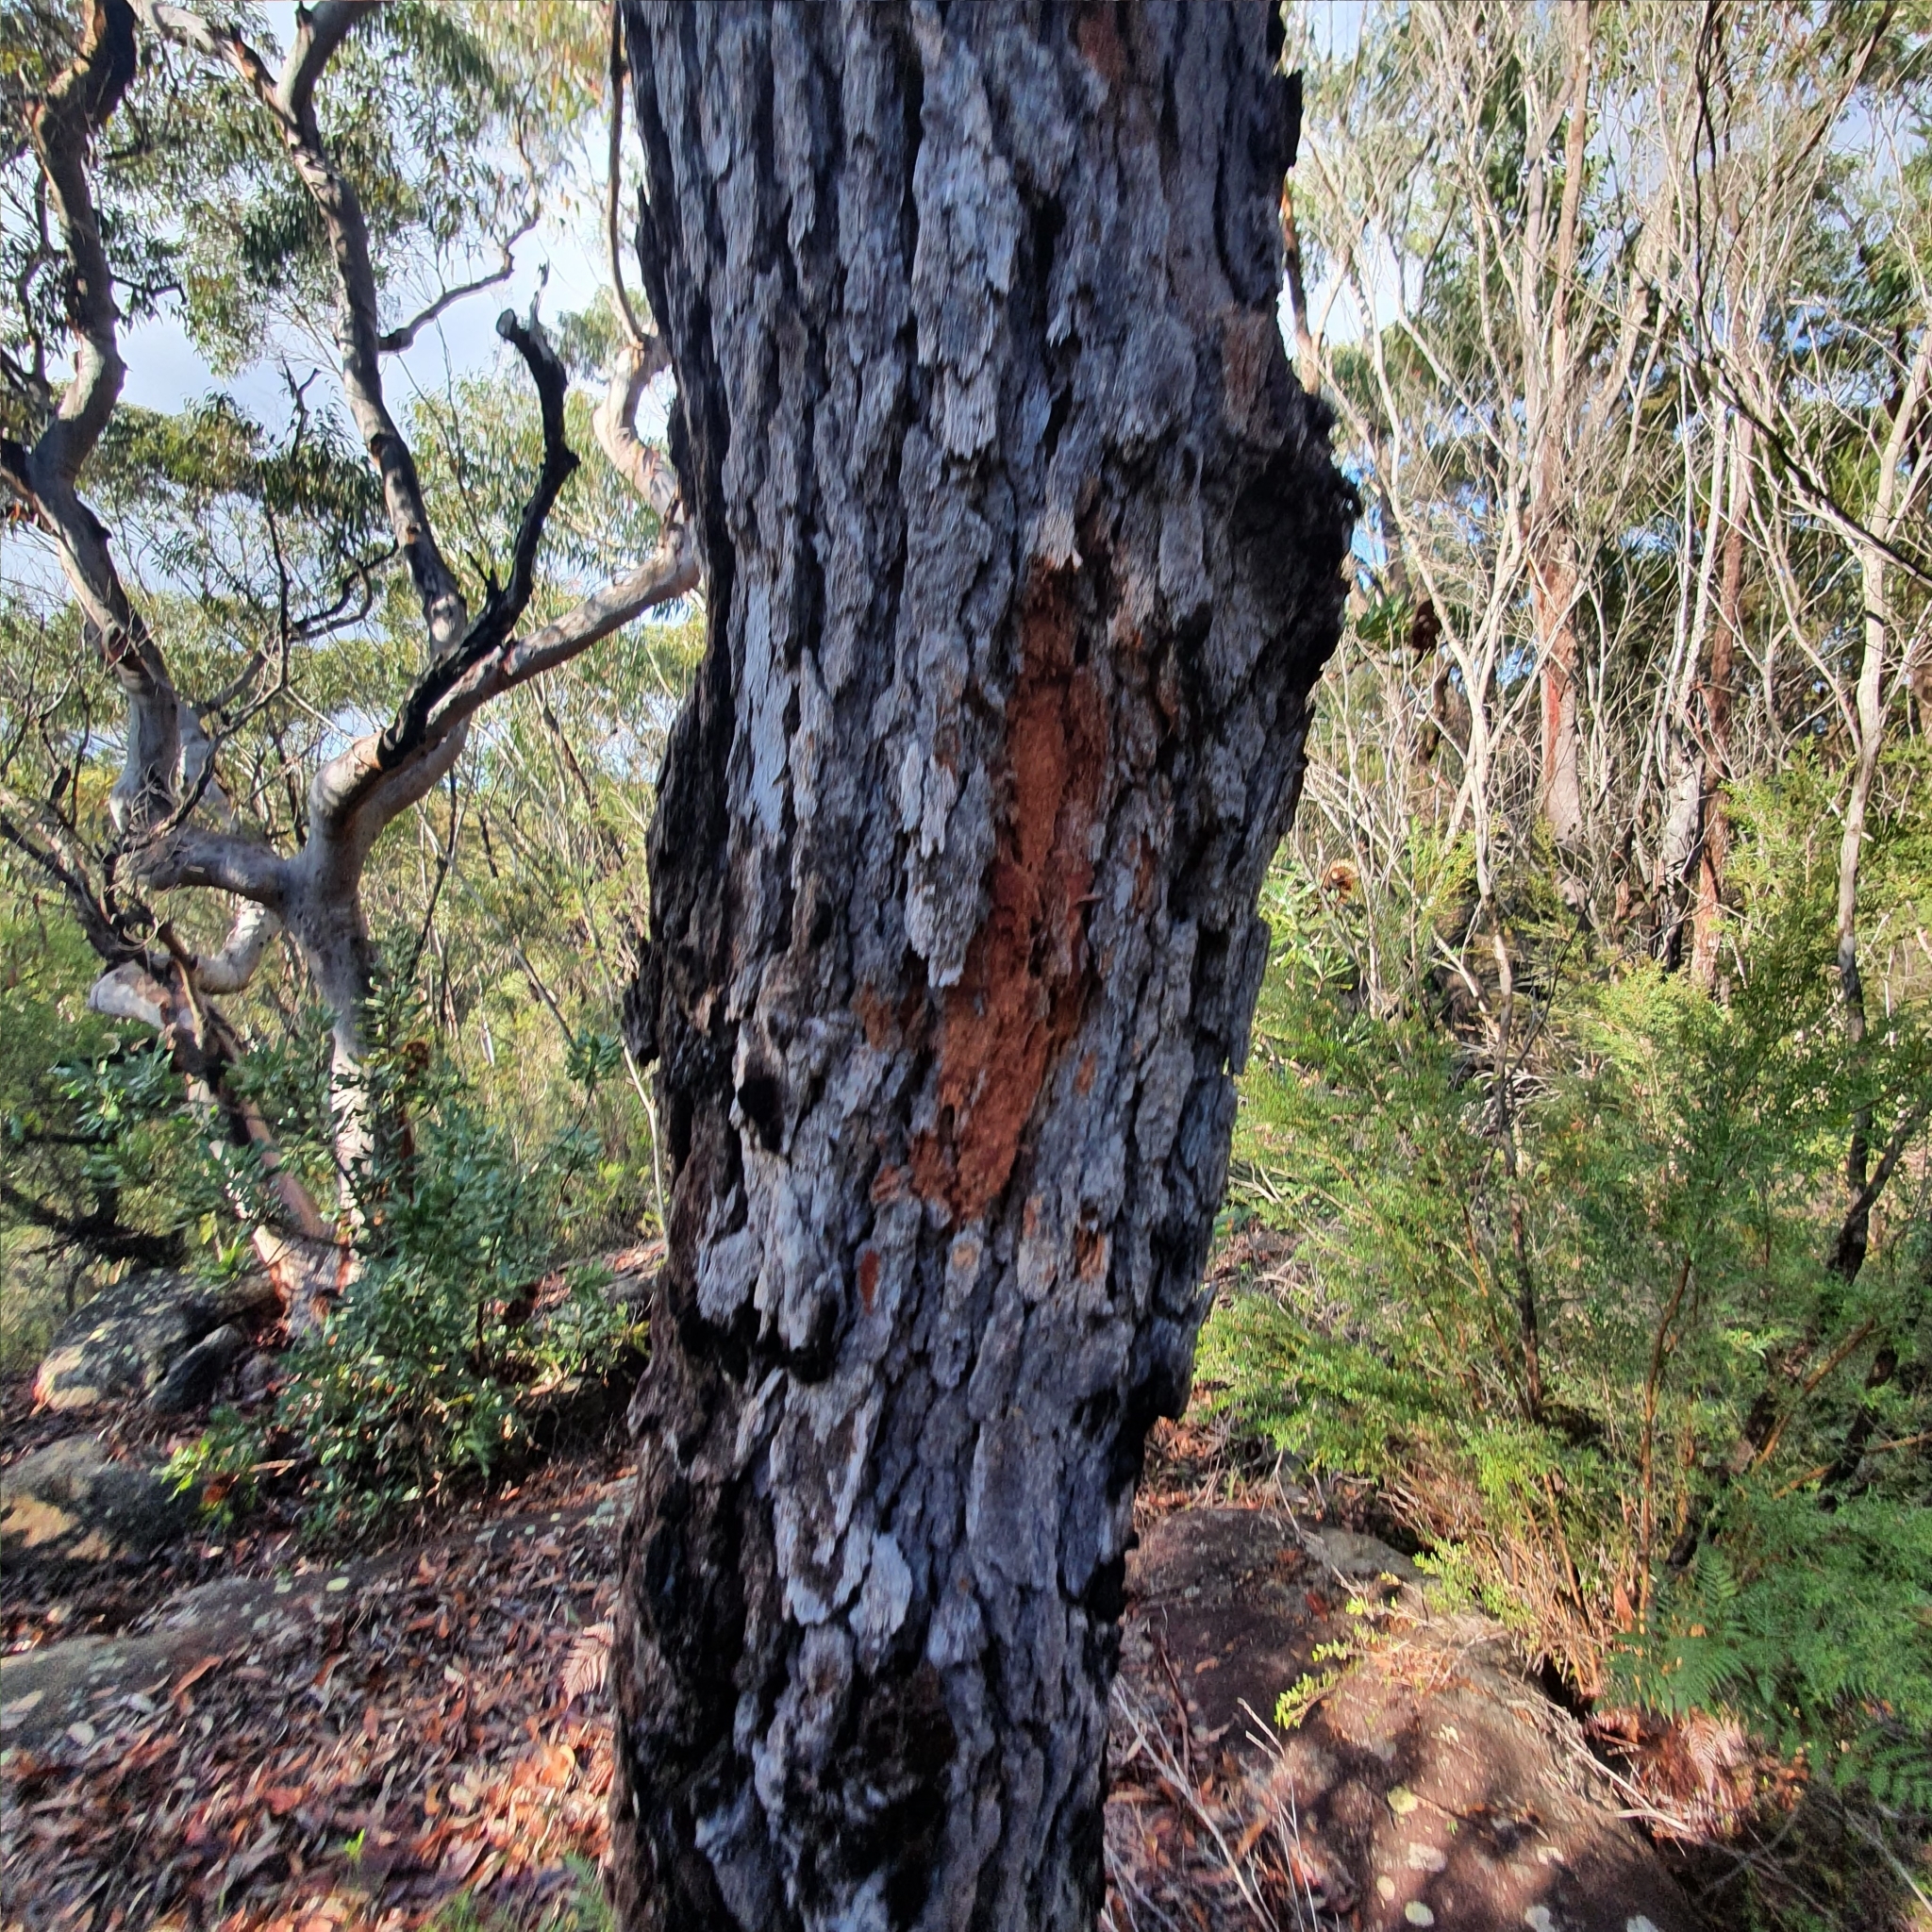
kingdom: Plantae
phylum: Tracheophyta
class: Magnoliopsida
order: Myrtales
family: Myrtaceae
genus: Corymbia
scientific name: Corymbia gummifera
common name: Red bloodwood
